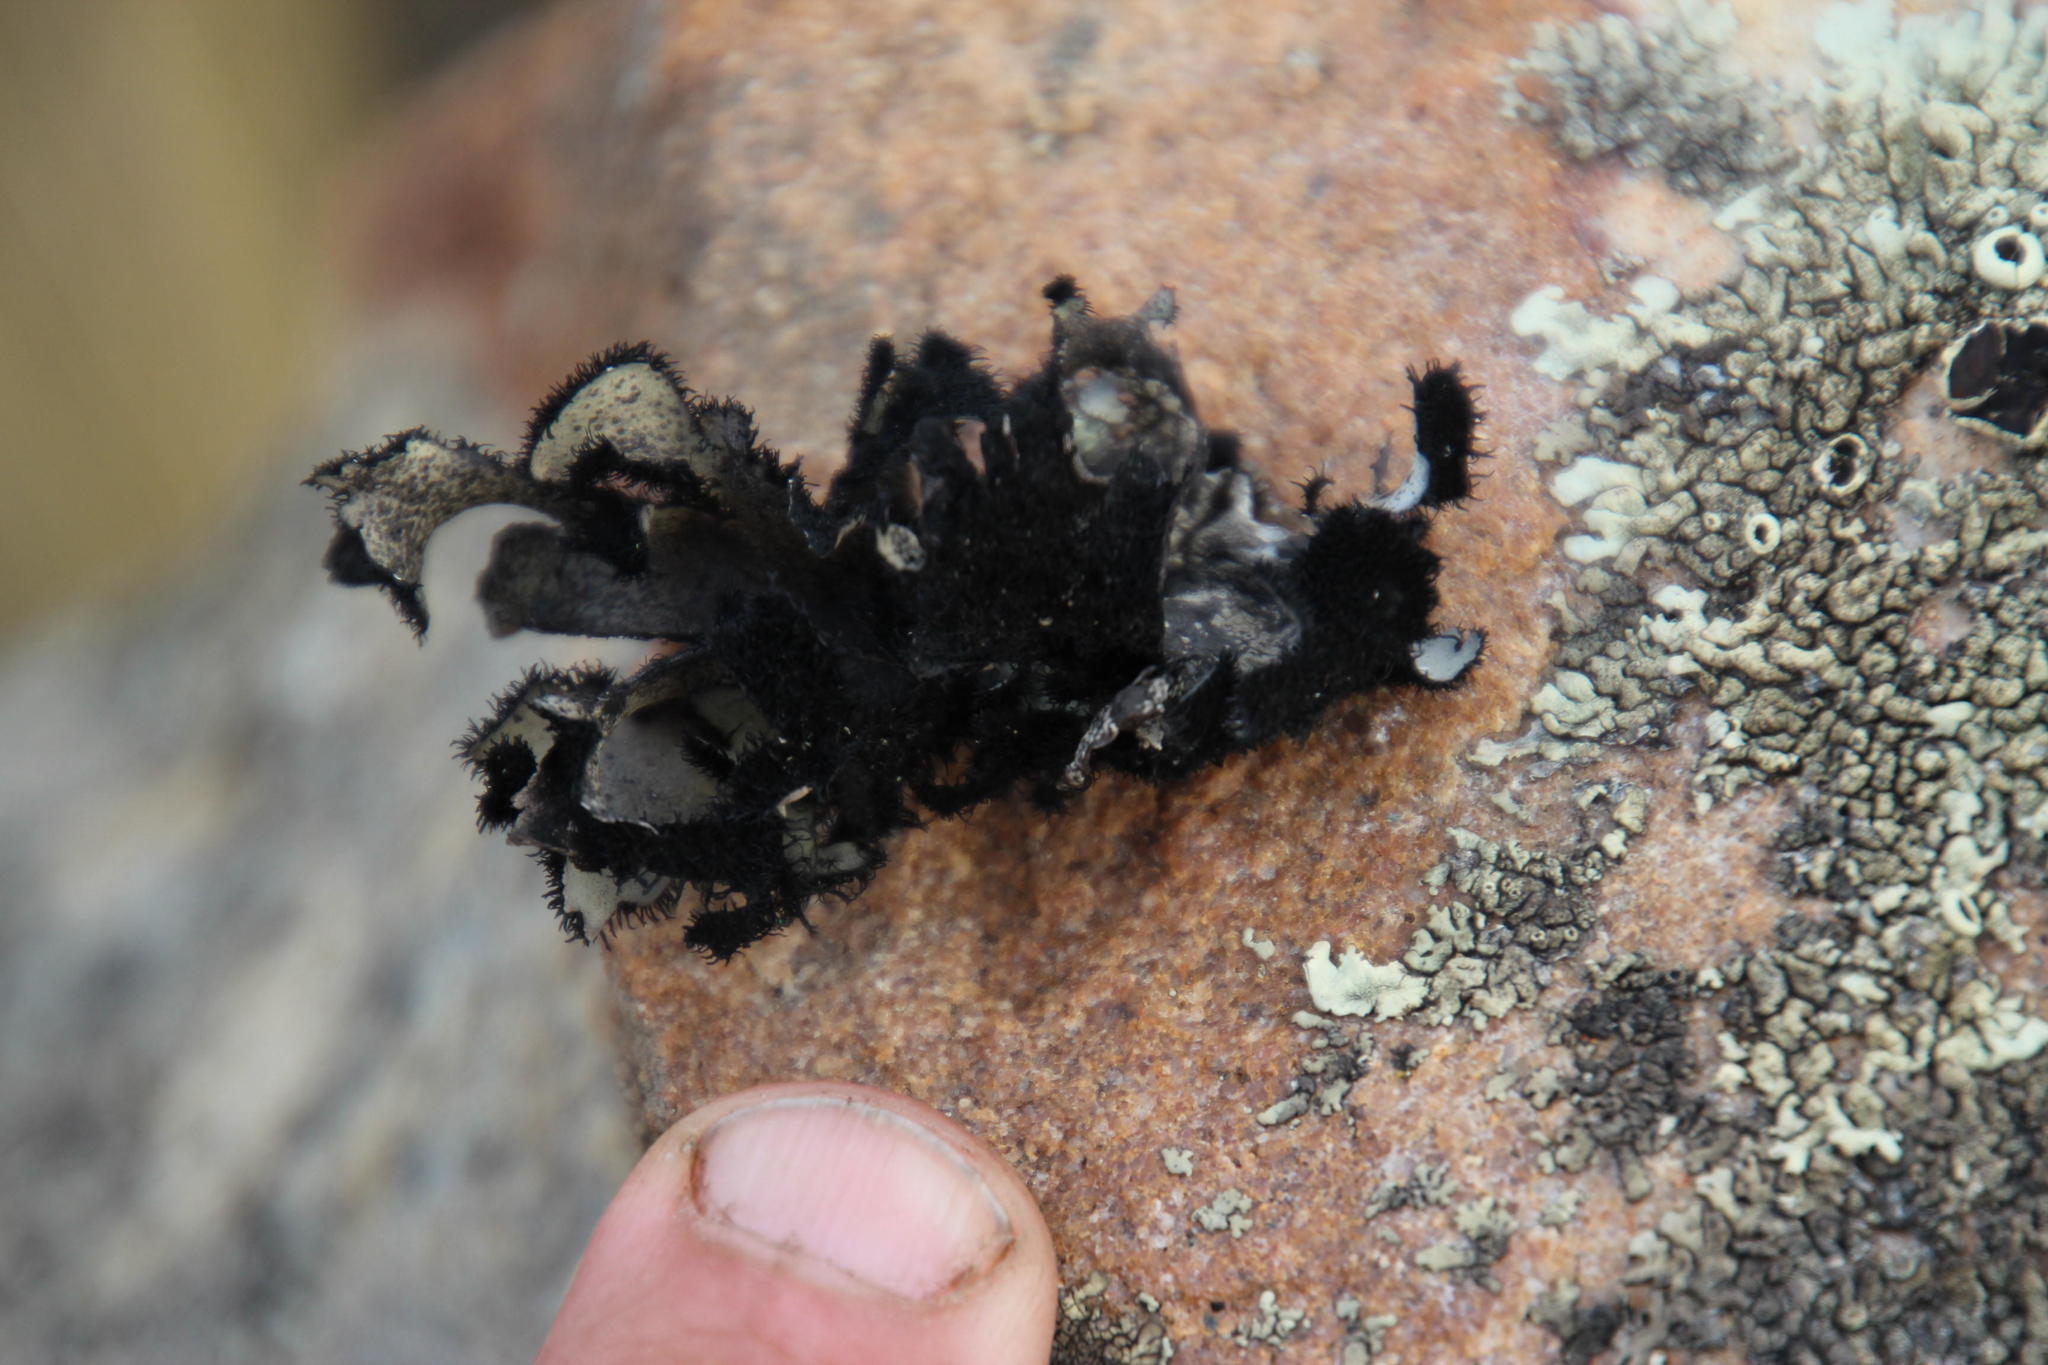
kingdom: Fungi
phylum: Ascomycota
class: Lecanoromycetes
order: Lecanorales
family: Parmeliaceae
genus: Xanthoparmelia
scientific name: Xanthoparmelia hottentotta
